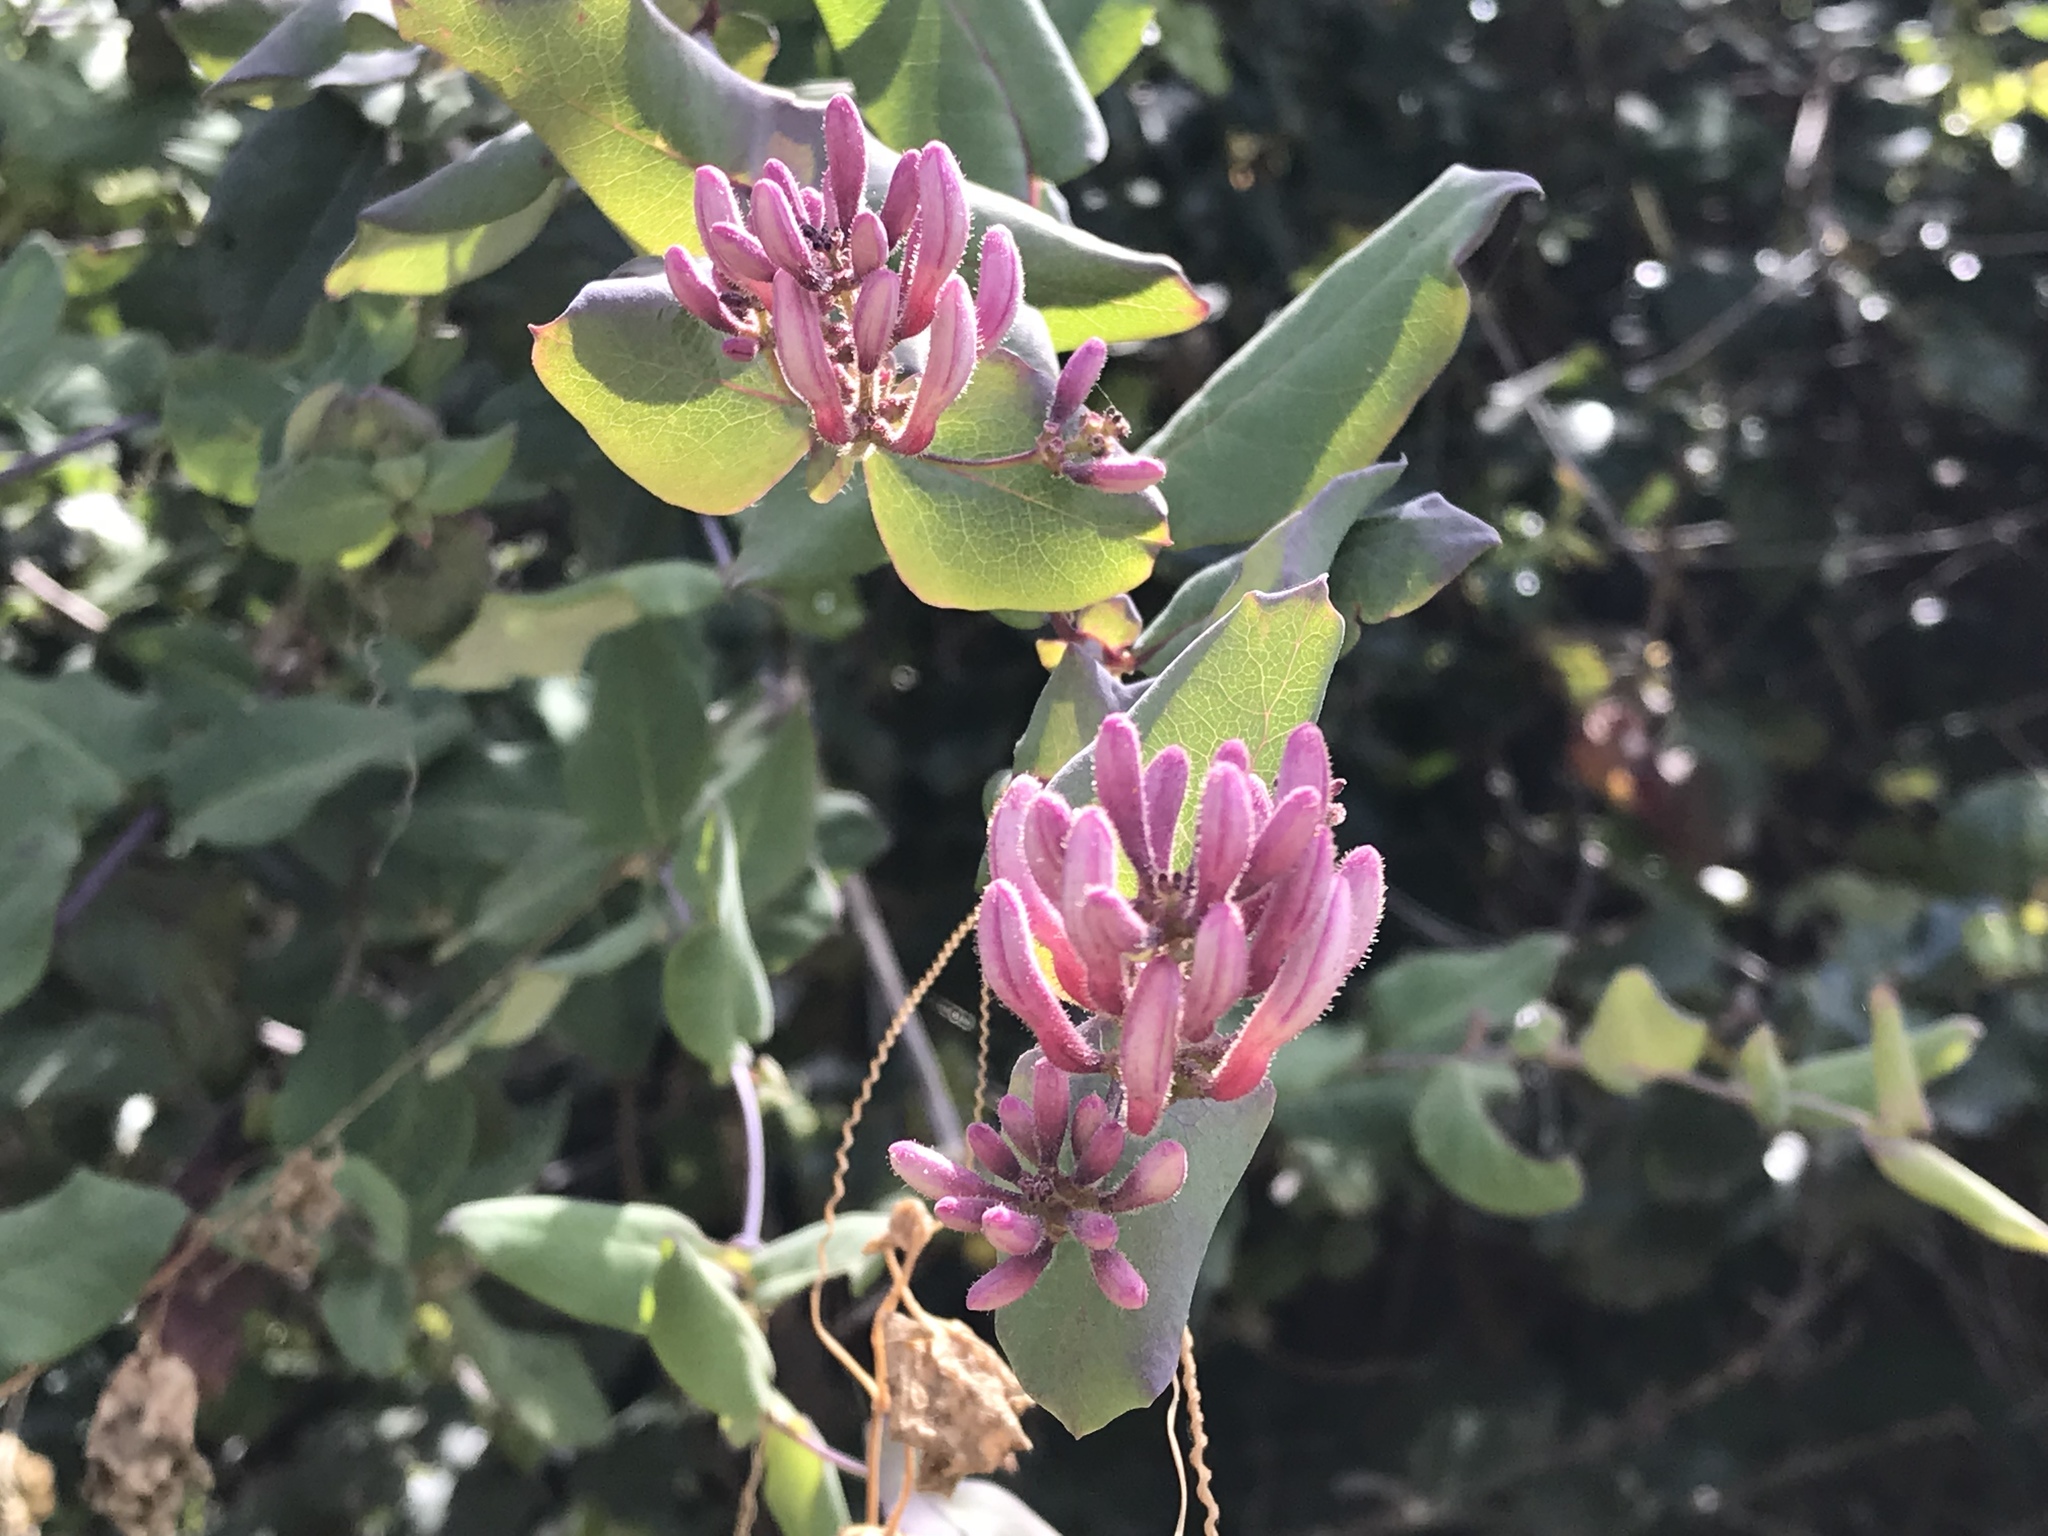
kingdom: Plantae
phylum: Tracheophyta
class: Magnoliopsida
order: Dipsacales
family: Caprifoliaceae
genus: Lonicera
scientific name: Lonicera hispidula
